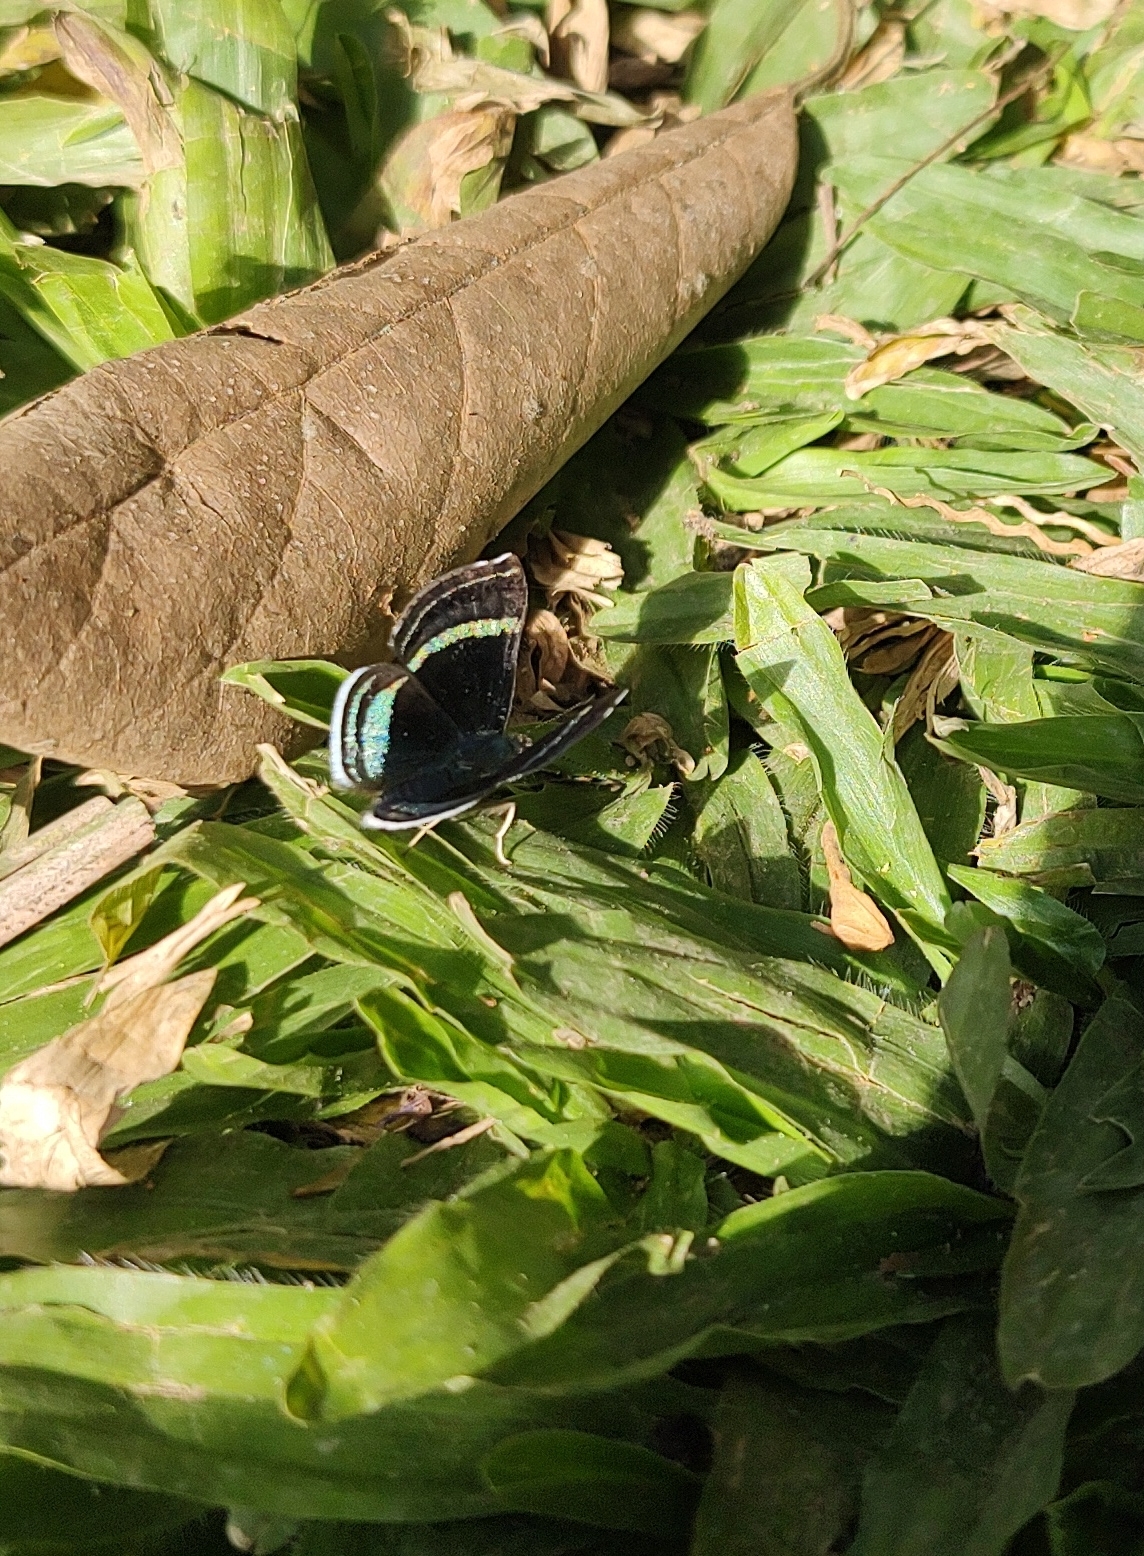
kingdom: Animalia
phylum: Arthropoda
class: Insecta
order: Lepidoptera
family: Riodinidae
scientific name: Riodinidae
